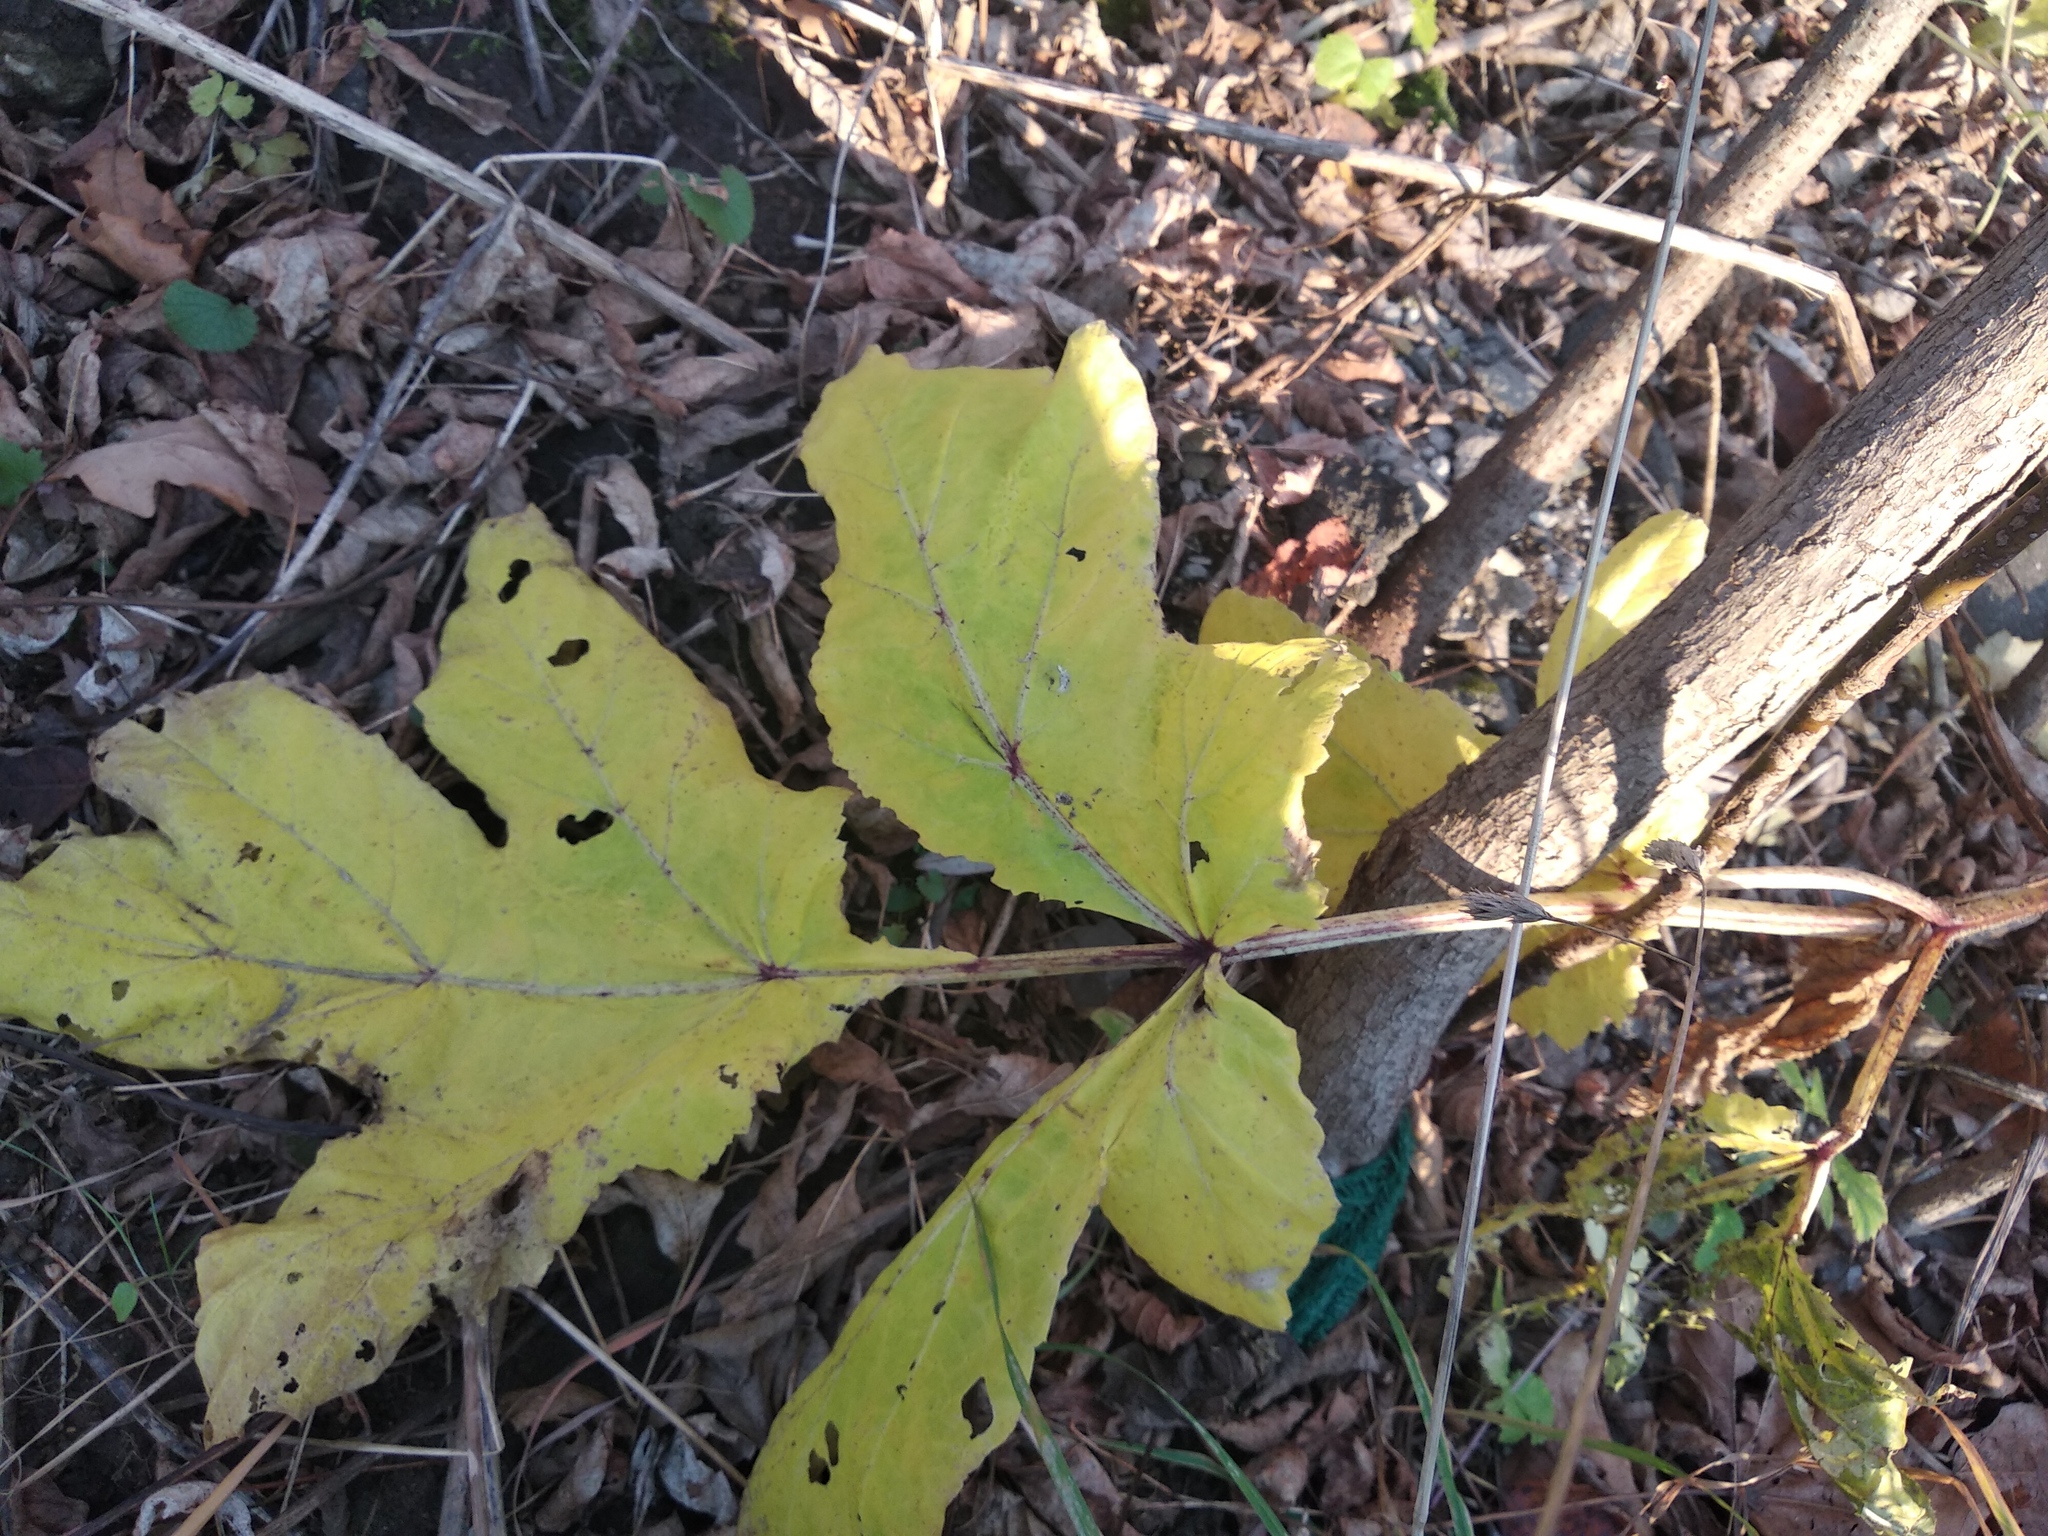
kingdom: Plantae
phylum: Tracheophyta
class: Magnoliopsida
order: Apiales
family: Apiaceae
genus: Heracleum
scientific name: Heracleum sosnowskyi
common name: Sosnowsky's hogweed
